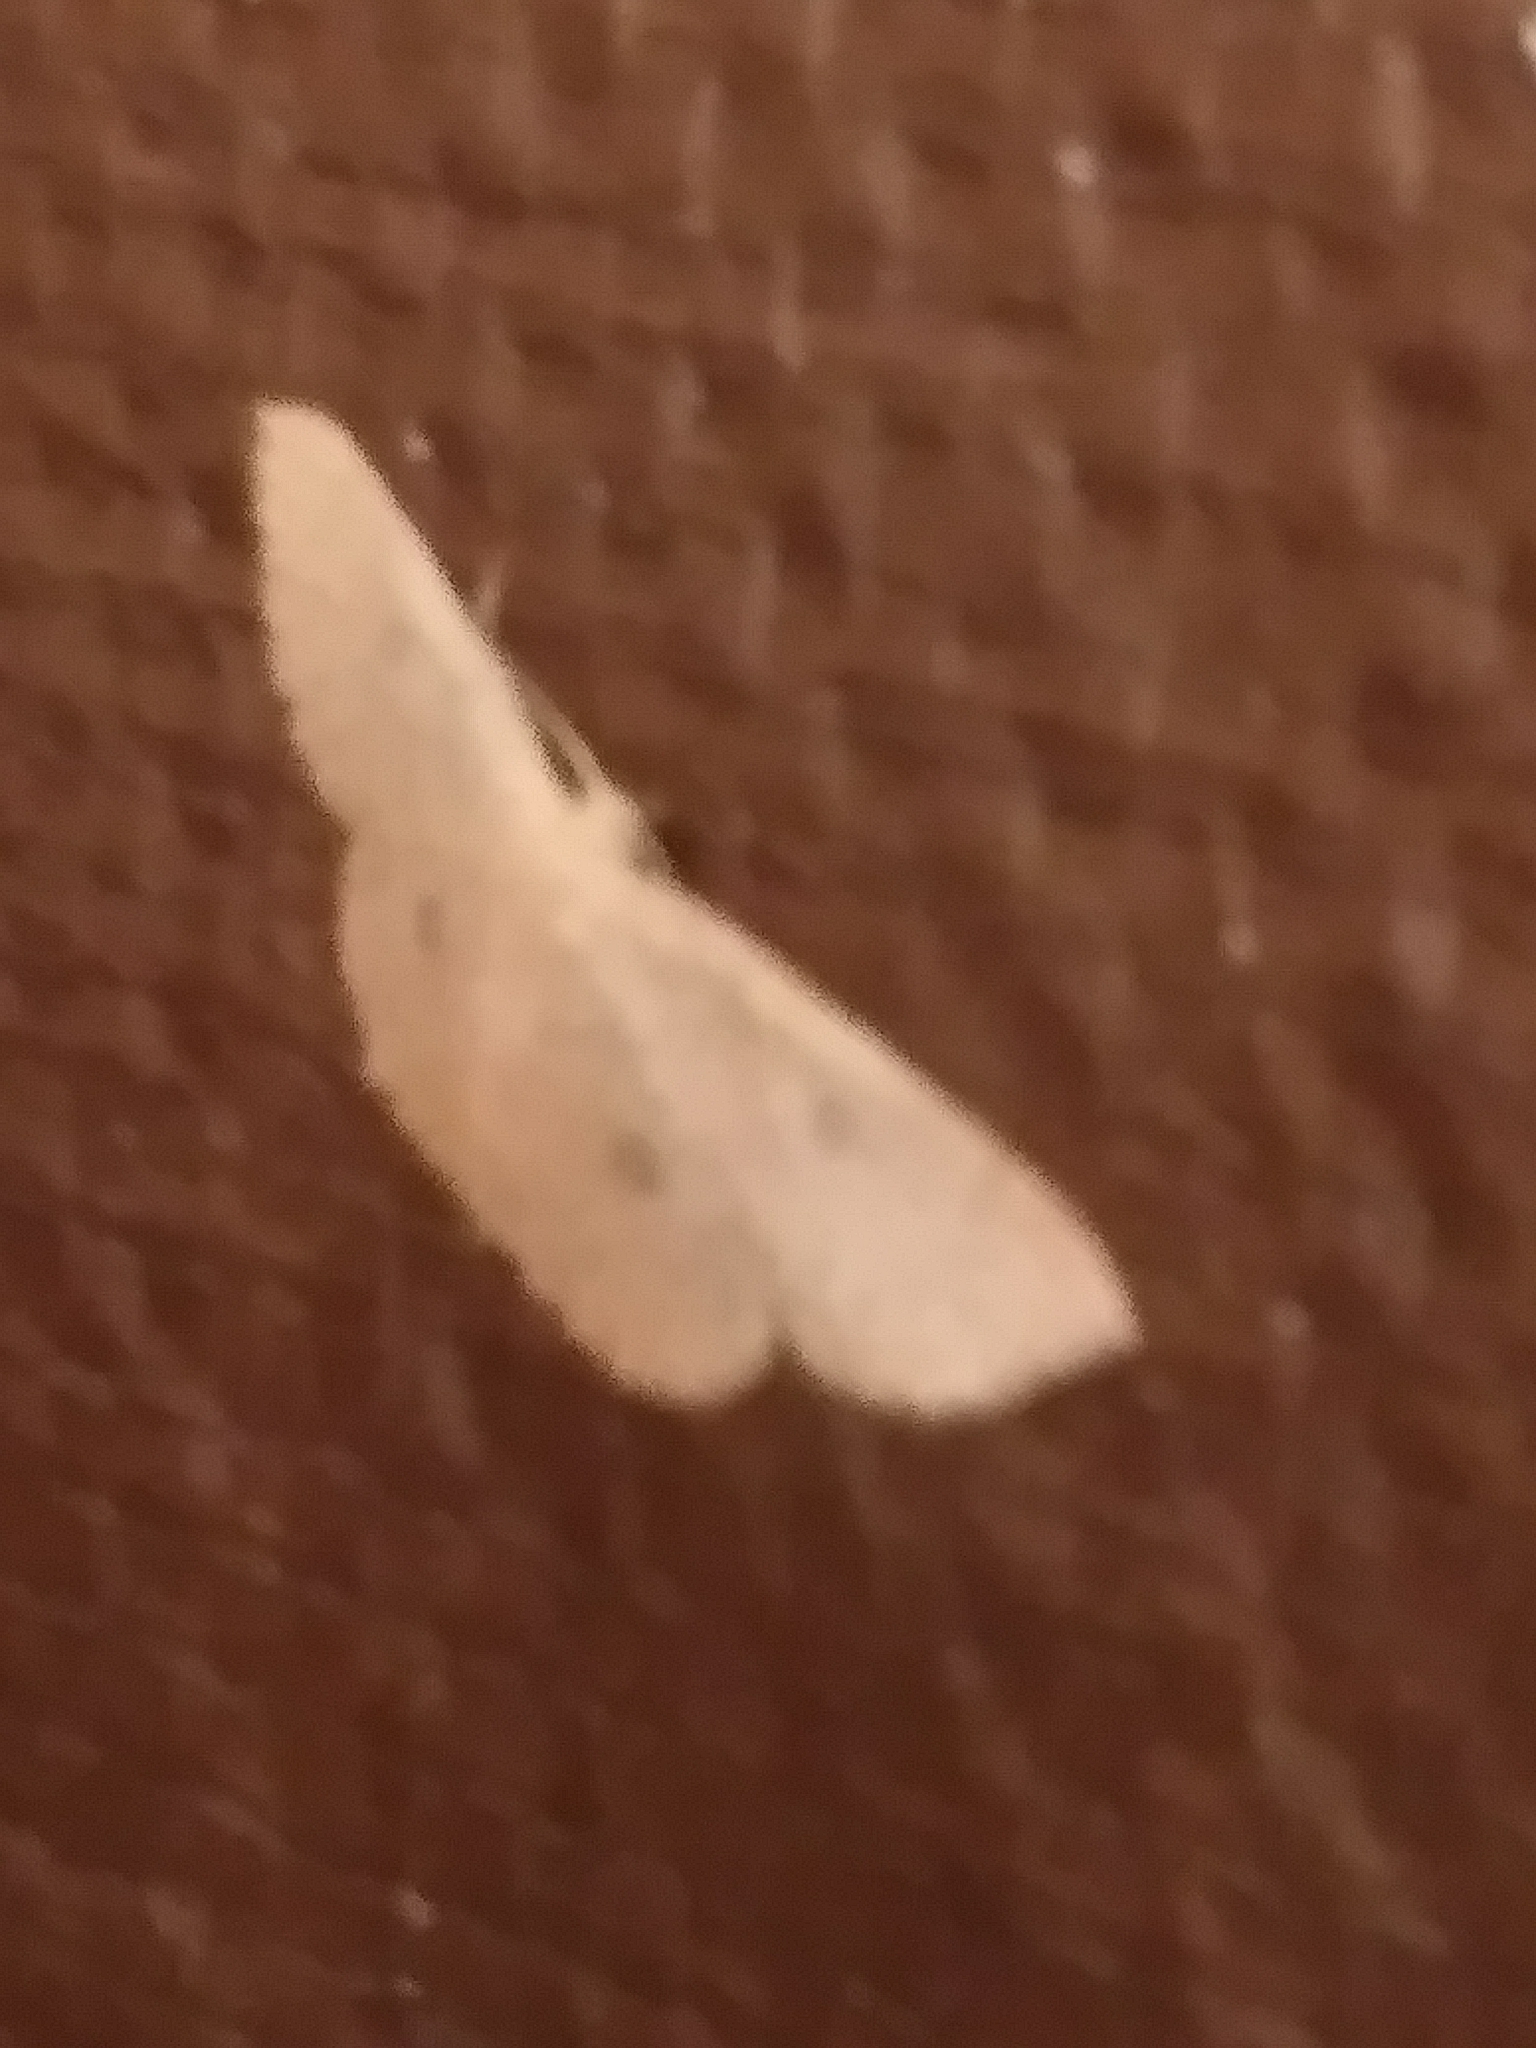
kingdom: Animalia
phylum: Arthropoda
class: Insecta
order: Lepidoptera
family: Geometridae
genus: Cyclophora
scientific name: Cyclophora packardi
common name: Packard's wave
